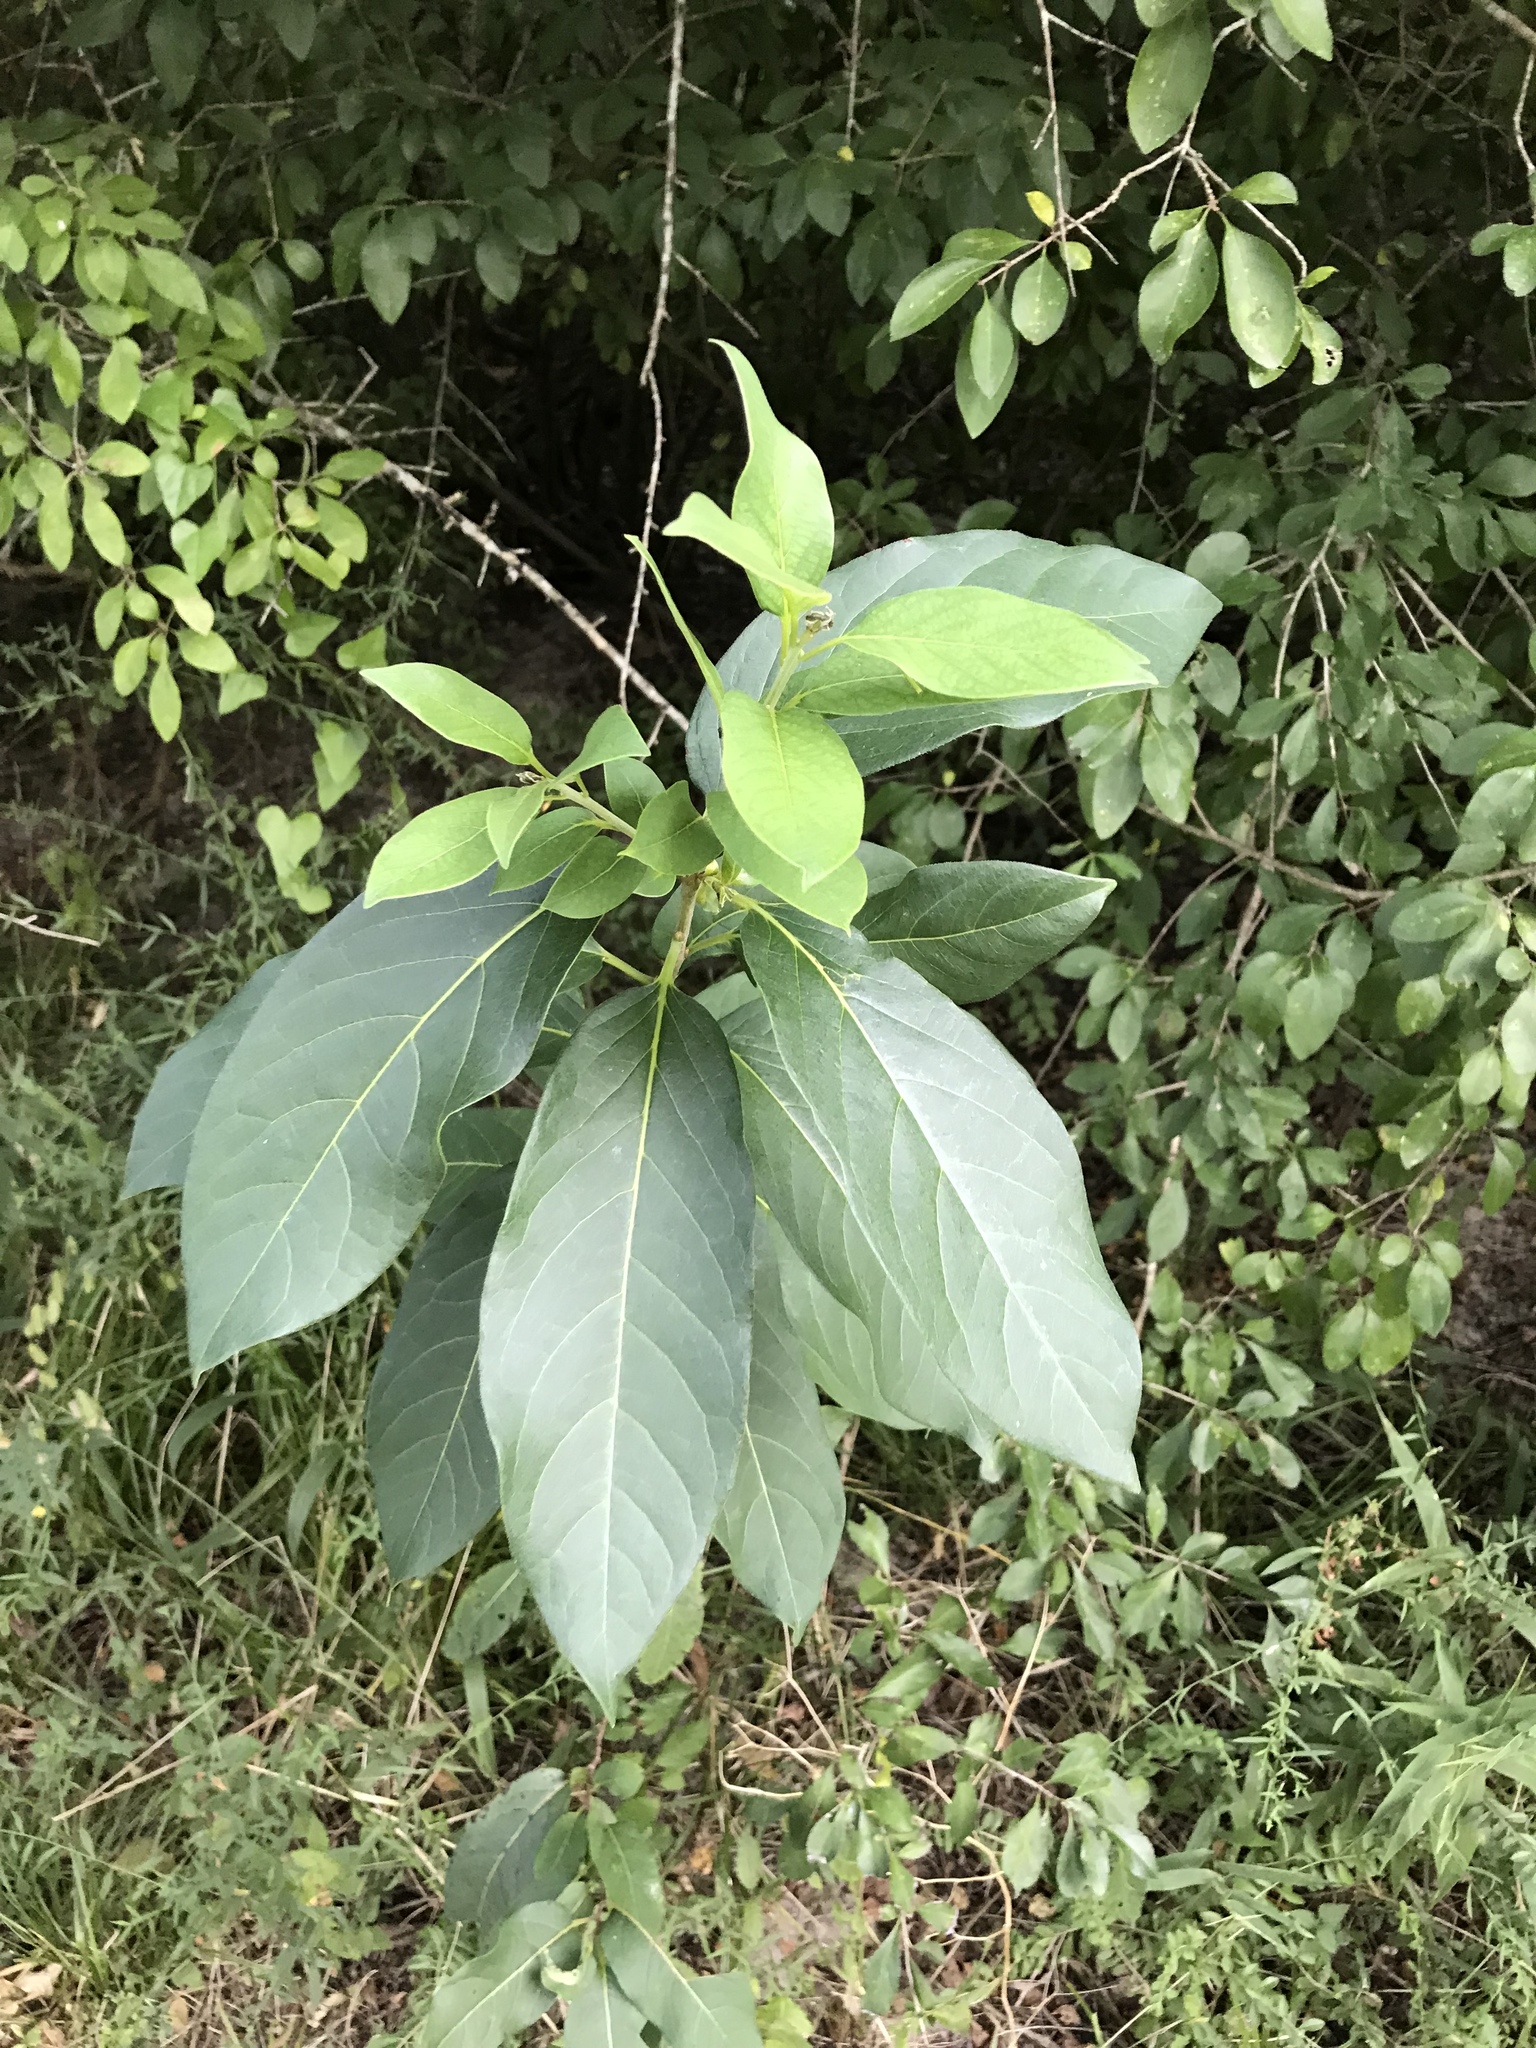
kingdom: Plantae
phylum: Tracheophyta
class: Magnoliopsida
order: Ericales
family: Ebenaceae
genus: Diospyros
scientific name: Diospyros virginiana
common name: Persimmon
